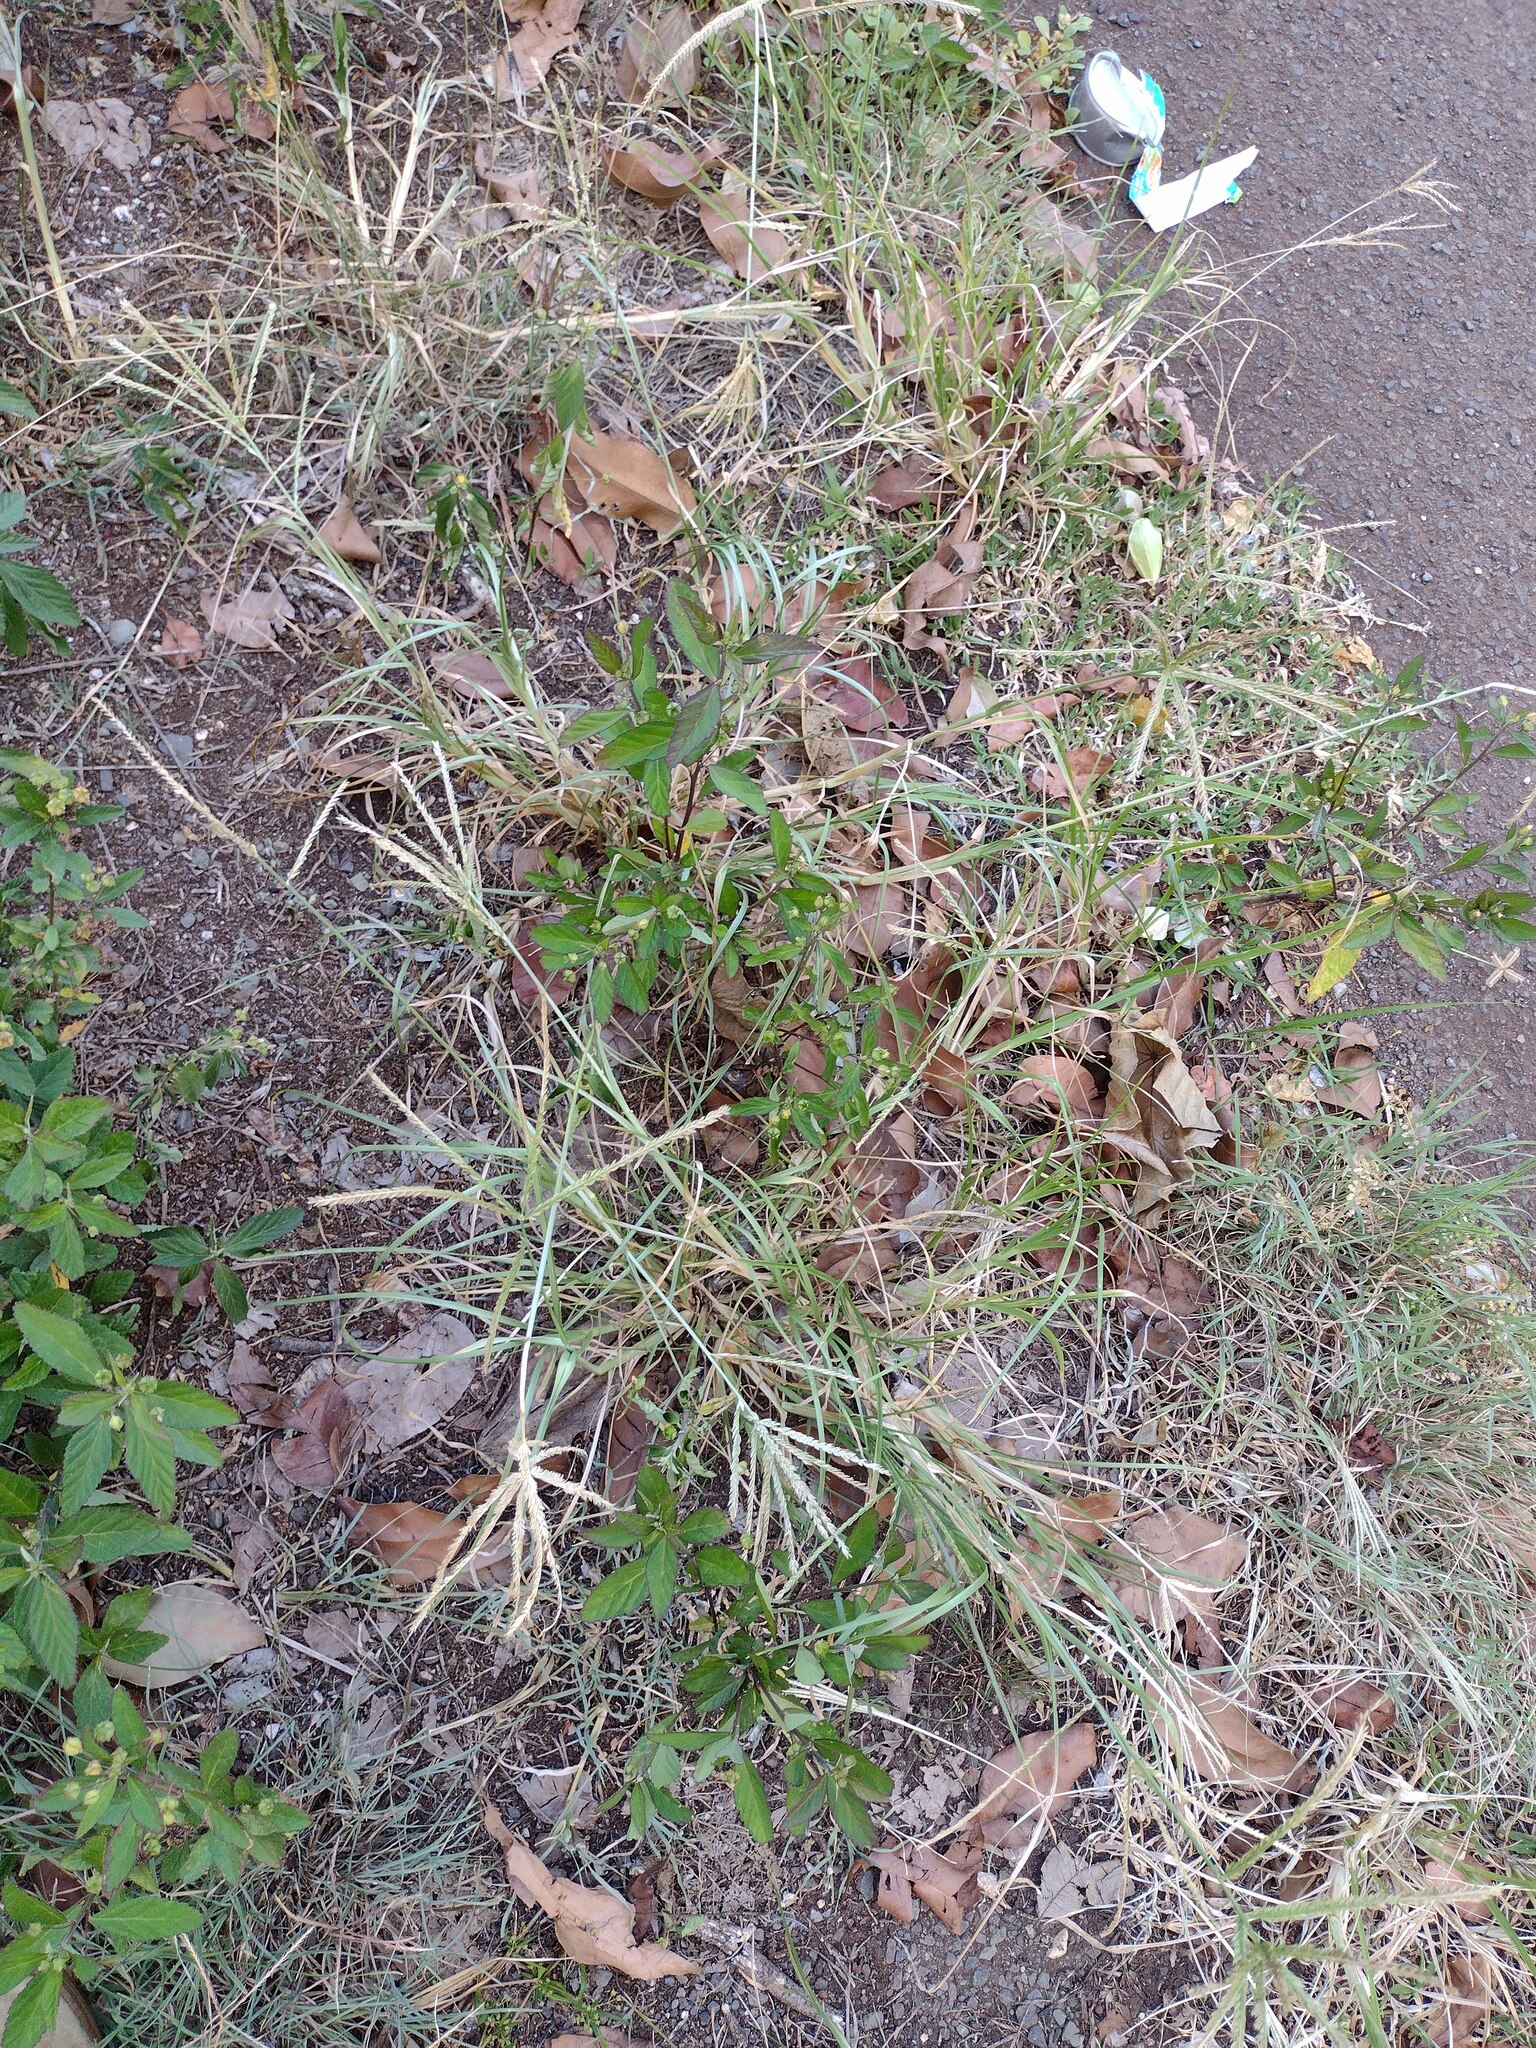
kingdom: Plantae
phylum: Tracheophyta
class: Liliopsida
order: Poales
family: Poaceae
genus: Eleusine
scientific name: Eleusine indica
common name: Yard-grass
